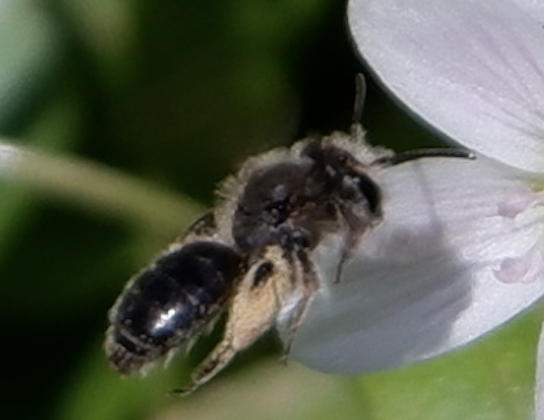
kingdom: Animalia
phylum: Arthropoda
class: Insecta
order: Hymenoptera
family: Andrenidae
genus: Andrena
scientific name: Andrena erigeniae
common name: Spring beauty miner
